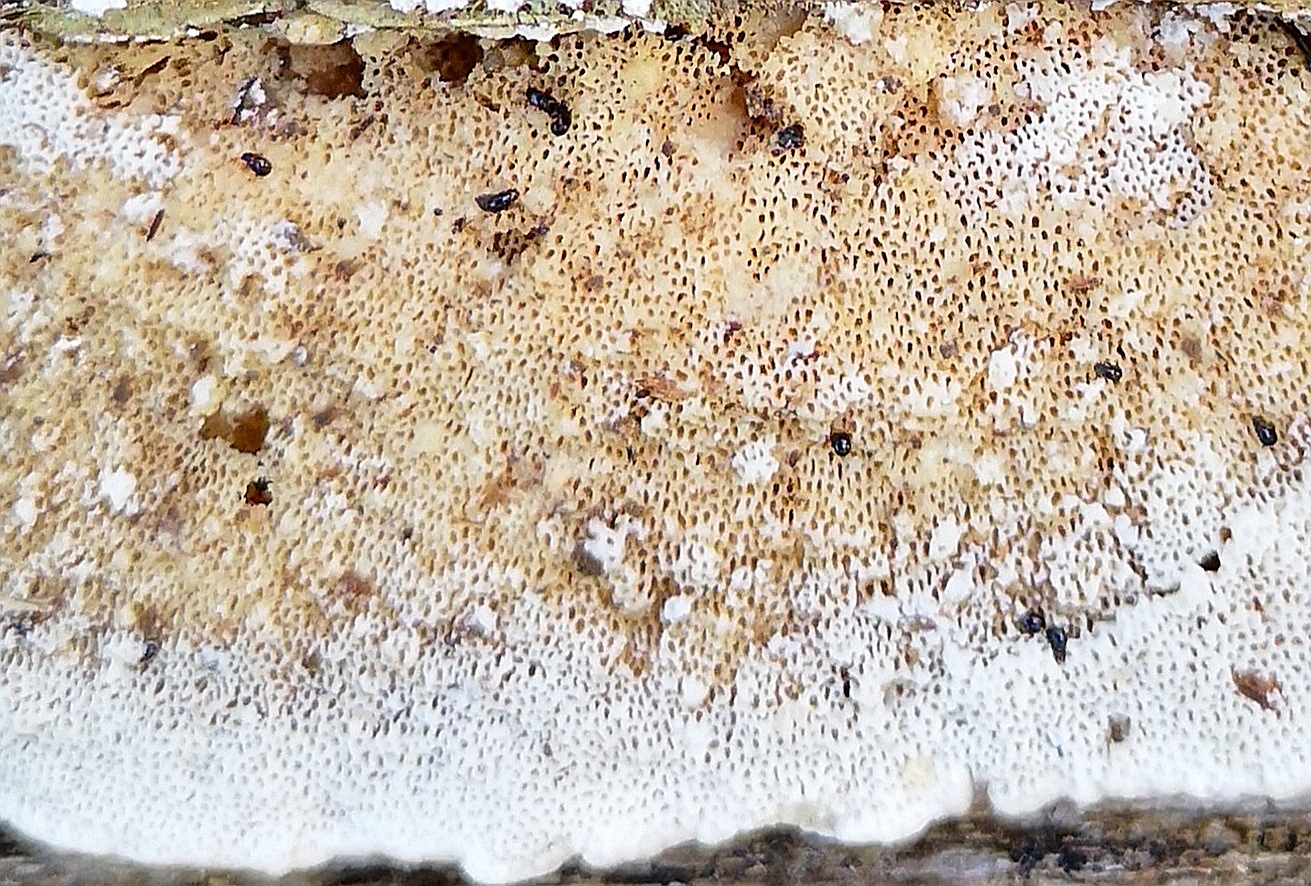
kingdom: Fungi
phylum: Basidiomycota
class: Agaricomycetes
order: Polyporales
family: Polyporaceae
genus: Trametes
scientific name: Trametes hirsuta
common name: Hairy bracket
